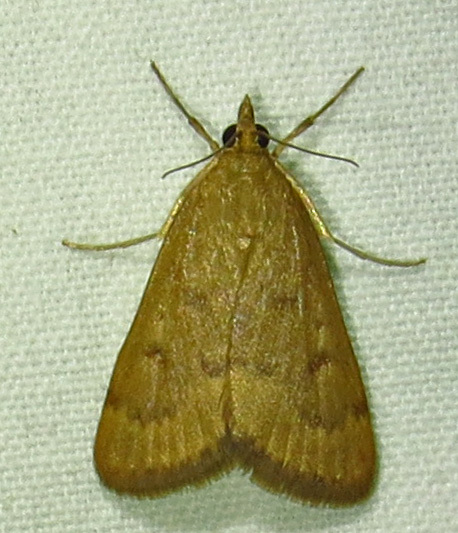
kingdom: Animalia
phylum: Arthropoda
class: Insecta
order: Lepidoptera
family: Crambidae
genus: Udea
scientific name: Udea rubigalis
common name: Celery leaftier moth
